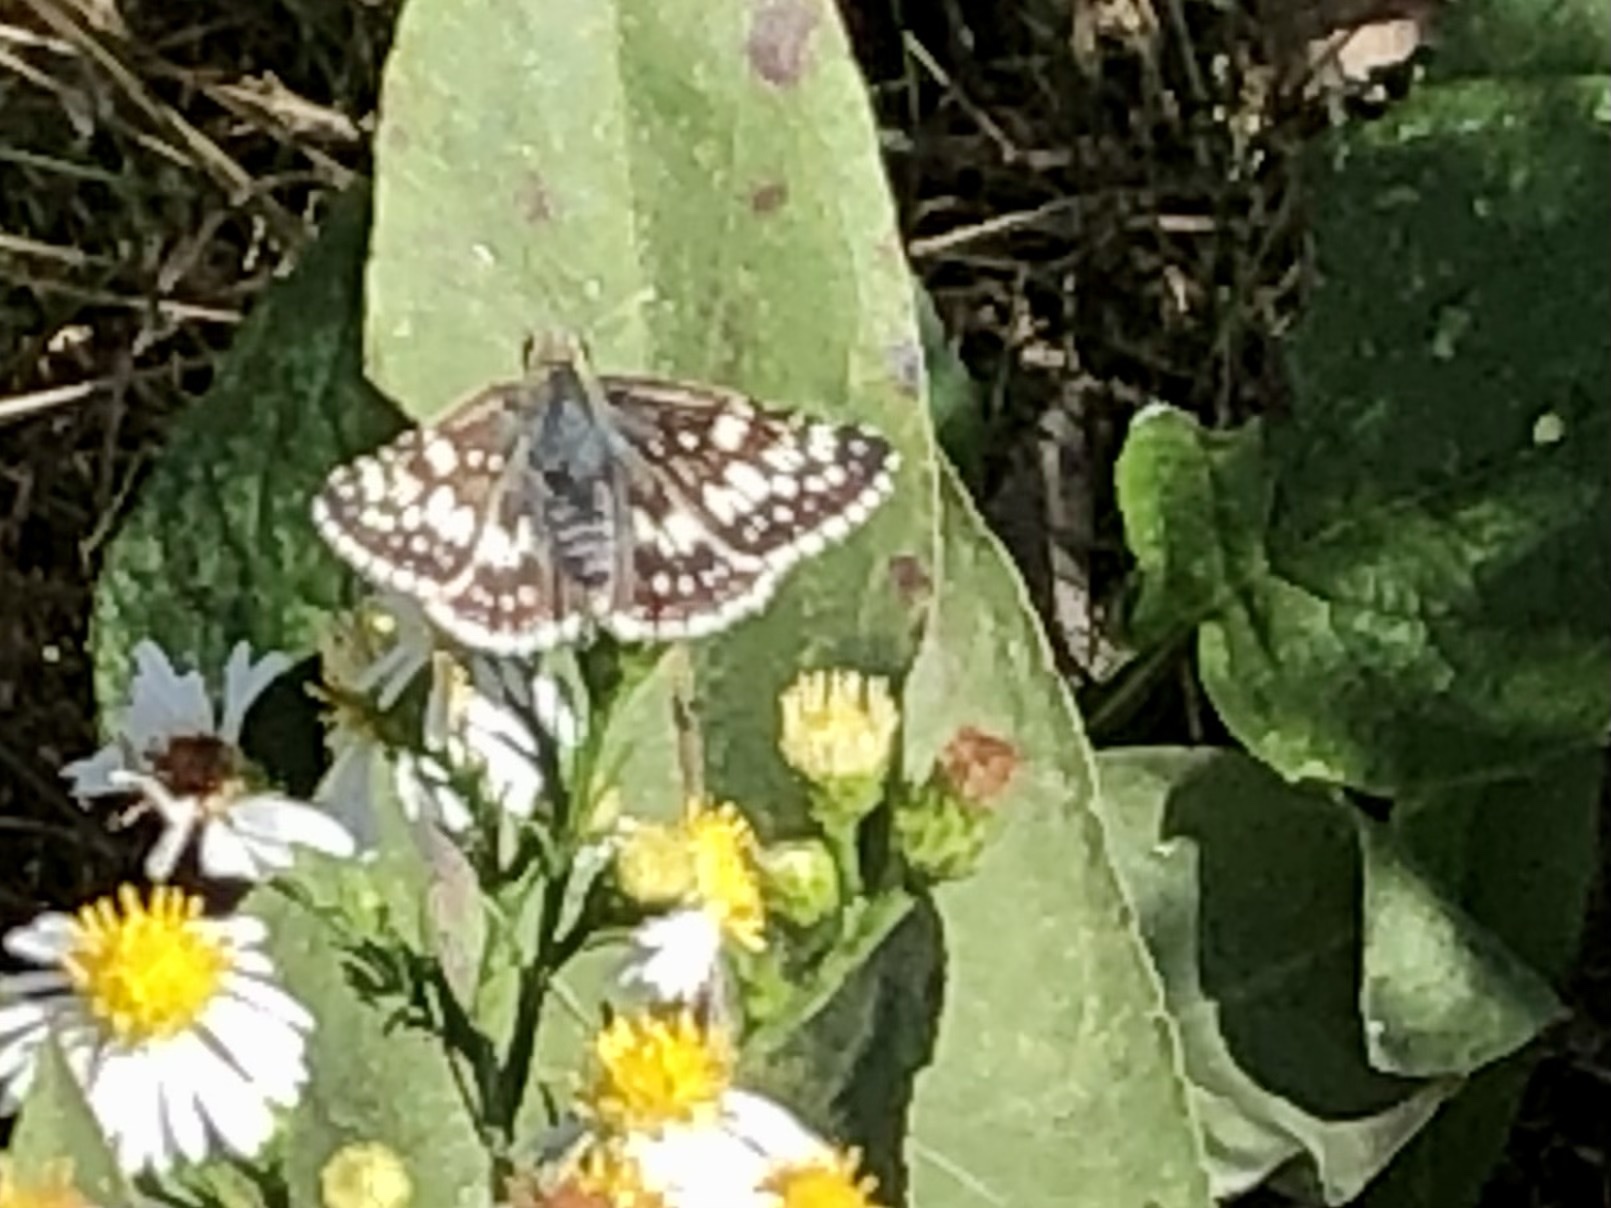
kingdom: Animalia
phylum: Arthropoda
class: Insecta
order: Lepidoptera
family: Hesperiidae
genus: Burnsius
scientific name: Burnsius communis
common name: Common checkered-skipper
